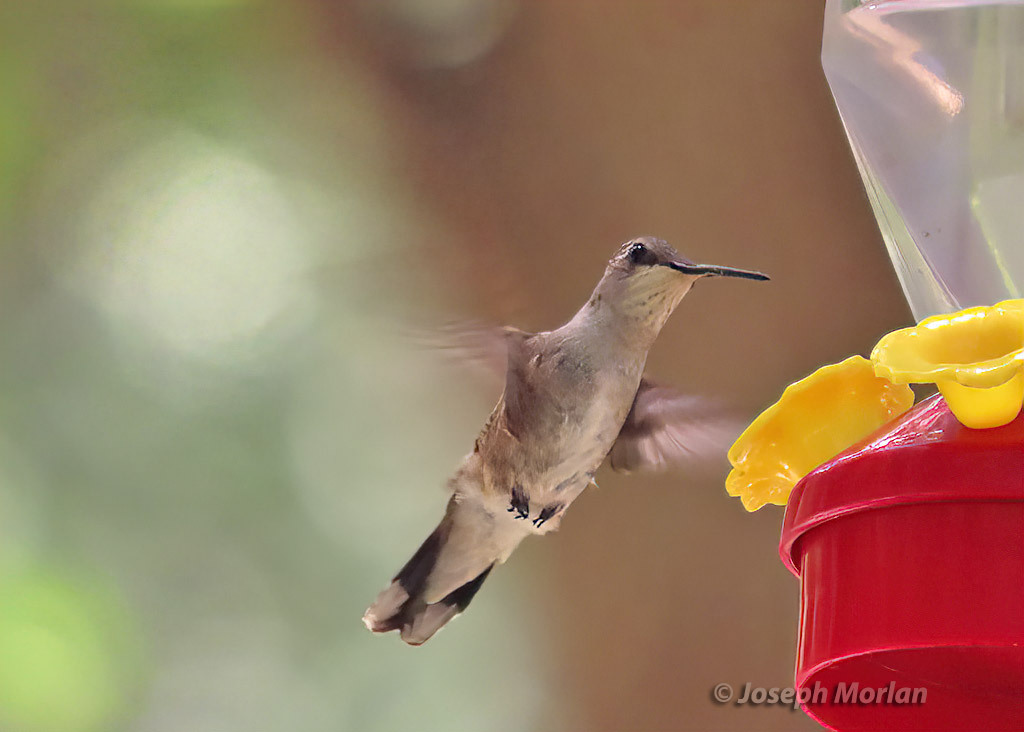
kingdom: Animalia
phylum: Chordata
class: Aves
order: Apodiformes
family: Trochilidae
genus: Archilochus
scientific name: Archilochus alexandri
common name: Black-chinned hummingbird
